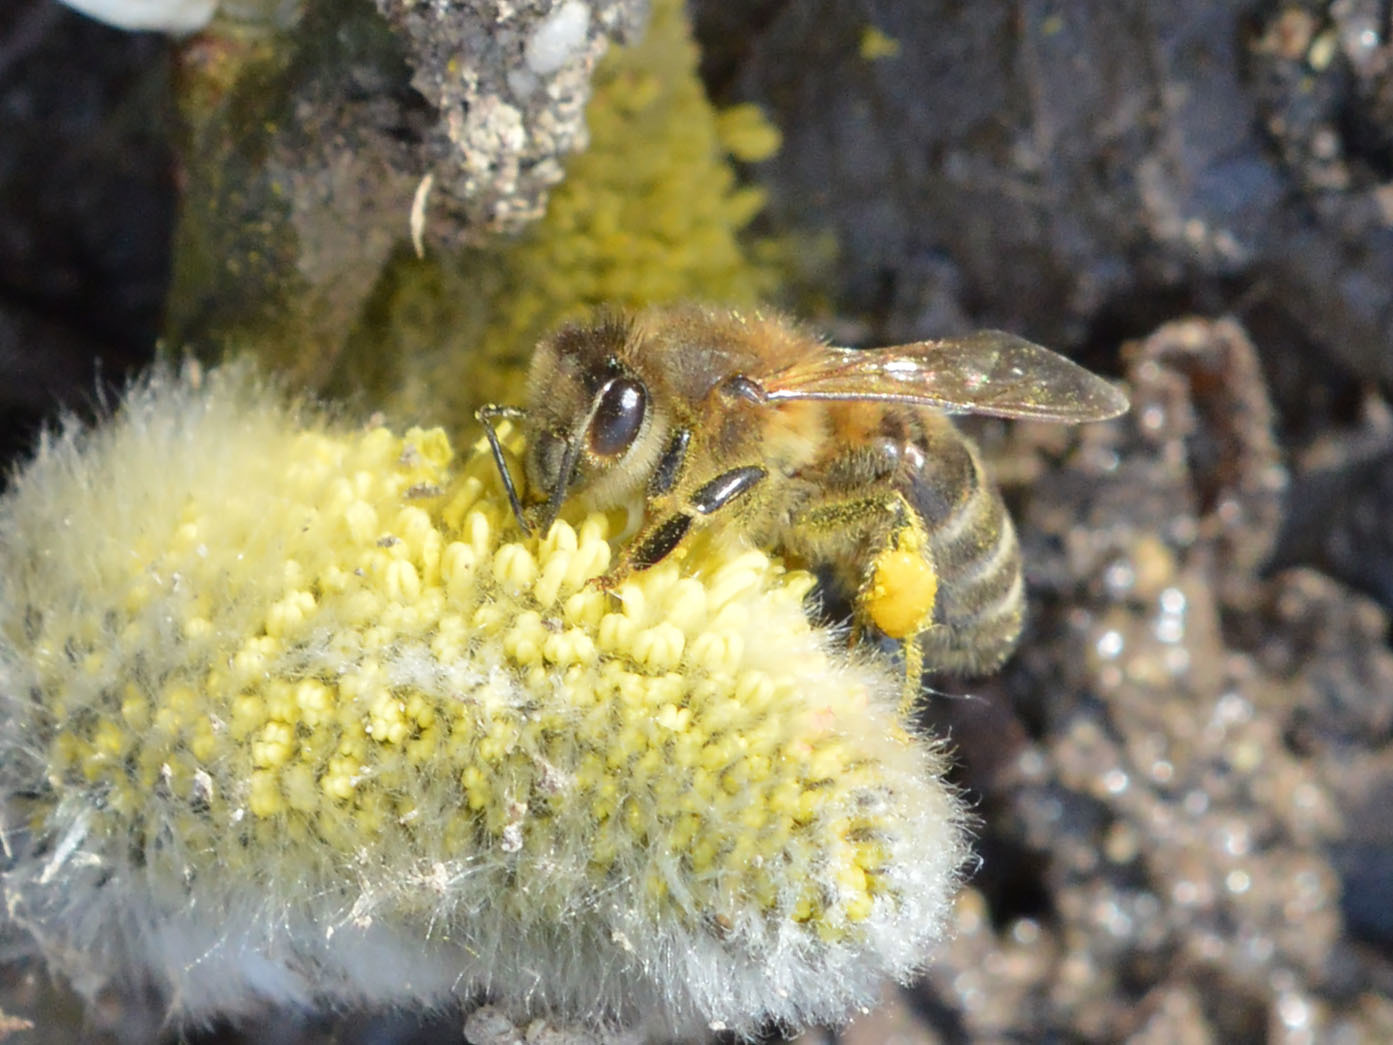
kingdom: Animalia
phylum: Arthropoda
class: Insecta
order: Hymenoptera
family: Apidae
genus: Apis
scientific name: Apis mellifera
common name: Honey bee
